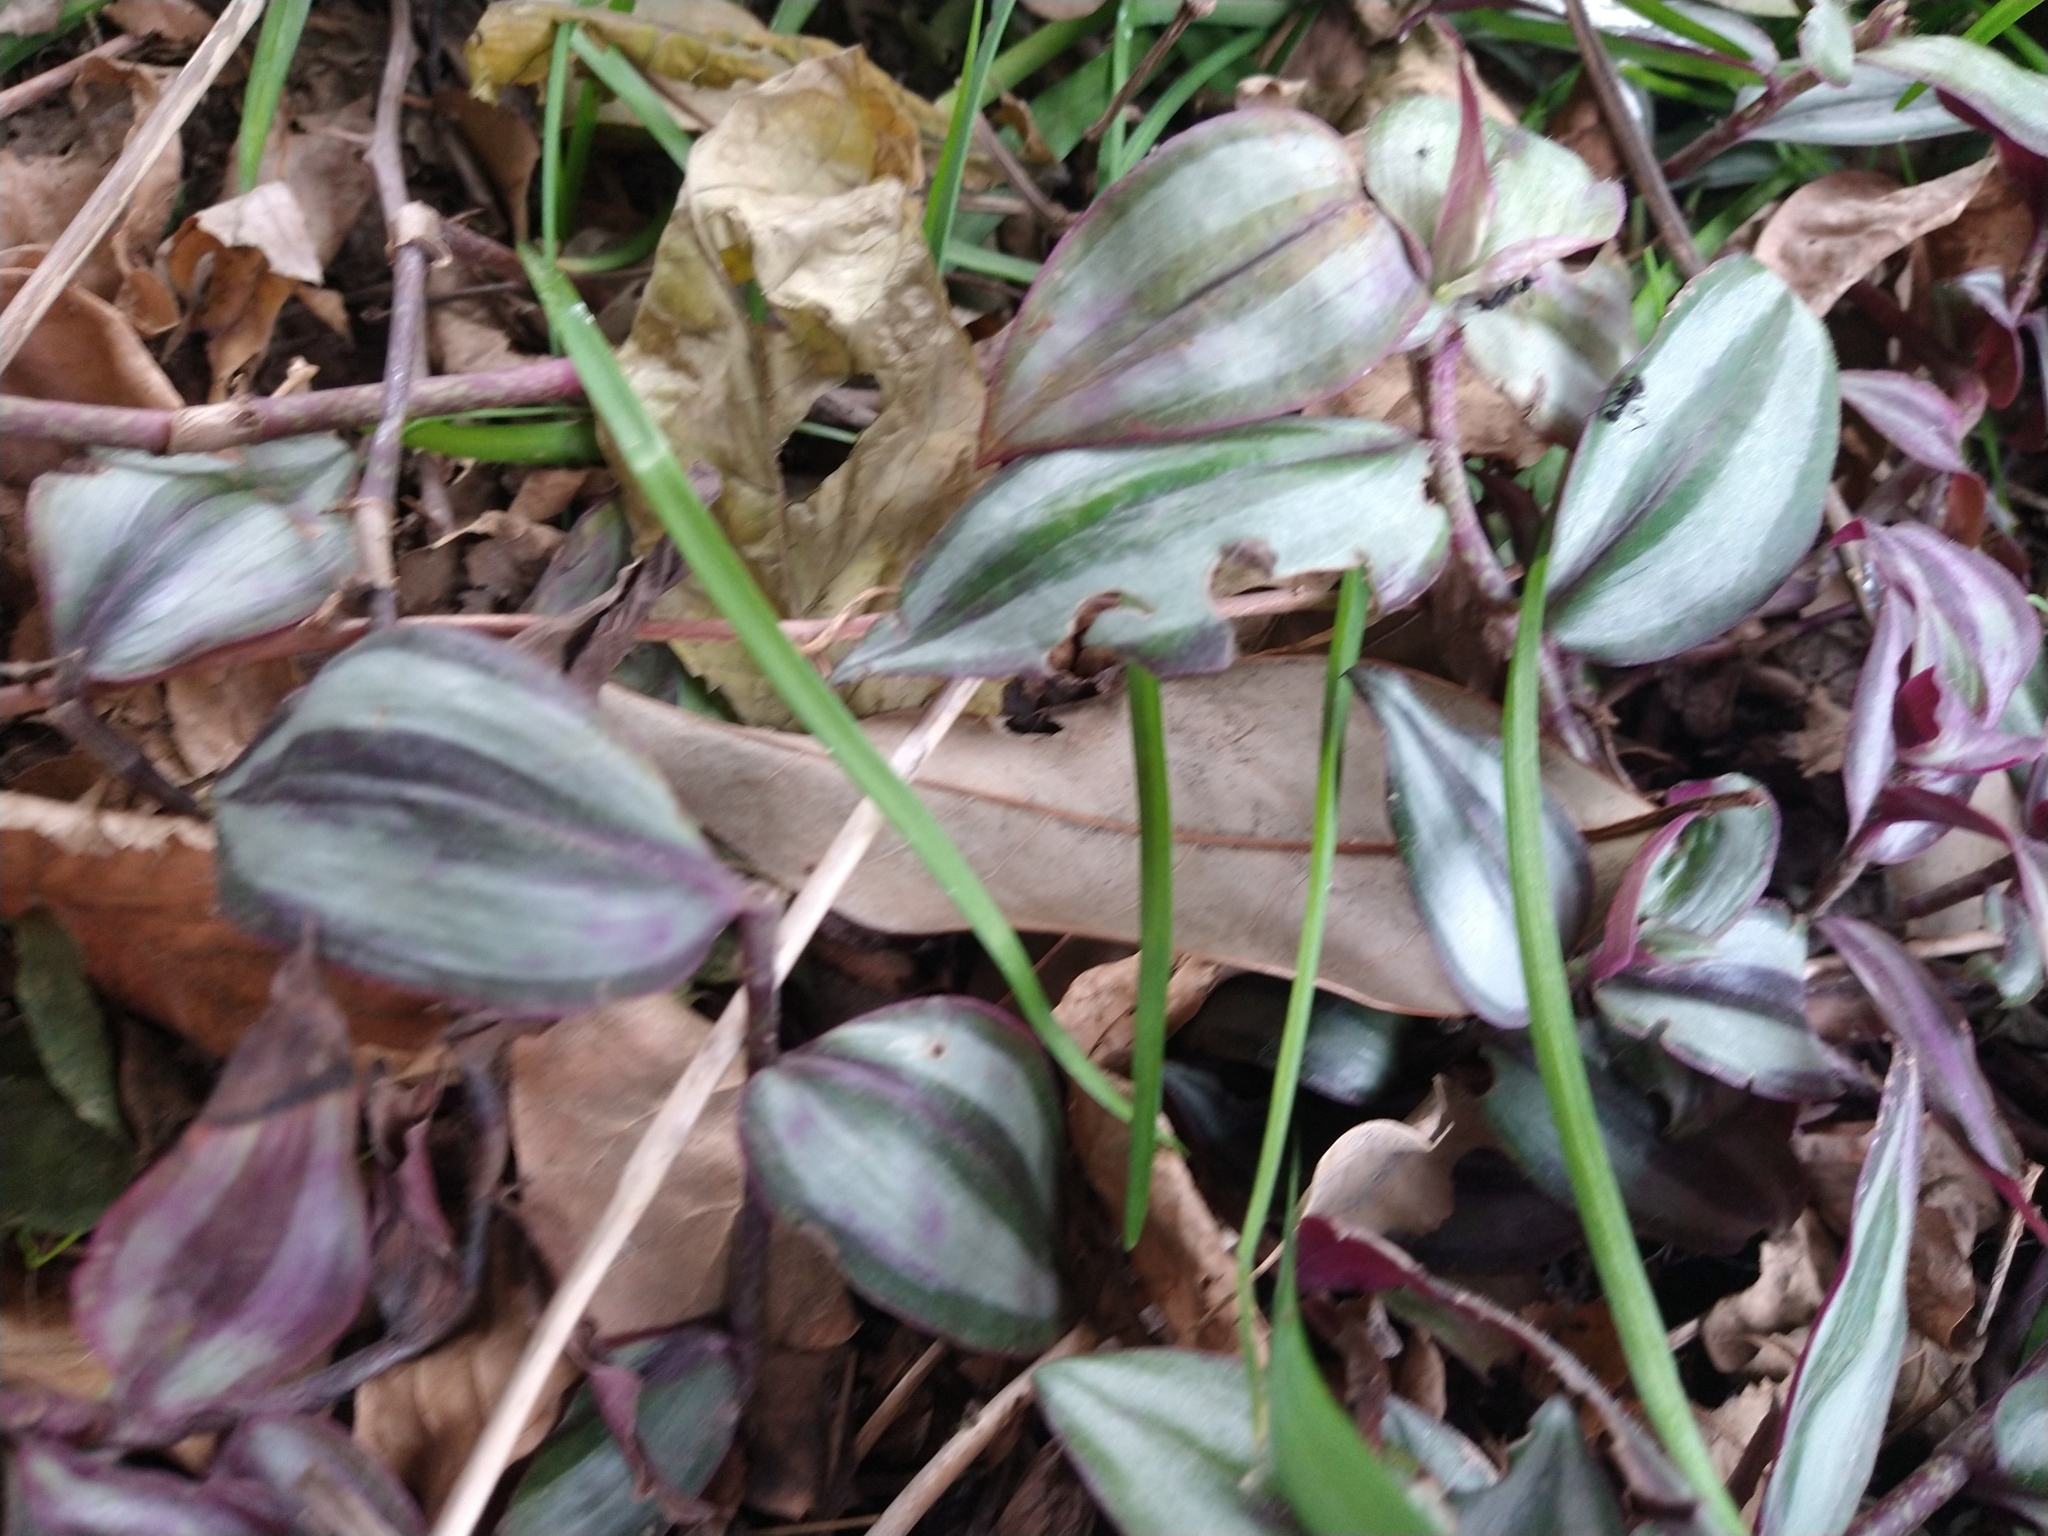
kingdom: Plantae
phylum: Tracheophyta
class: Liliopsida
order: Commelinales
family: Commelinaceae
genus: Tradescantia
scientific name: Tradescantia zebrina
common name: Inchplant
